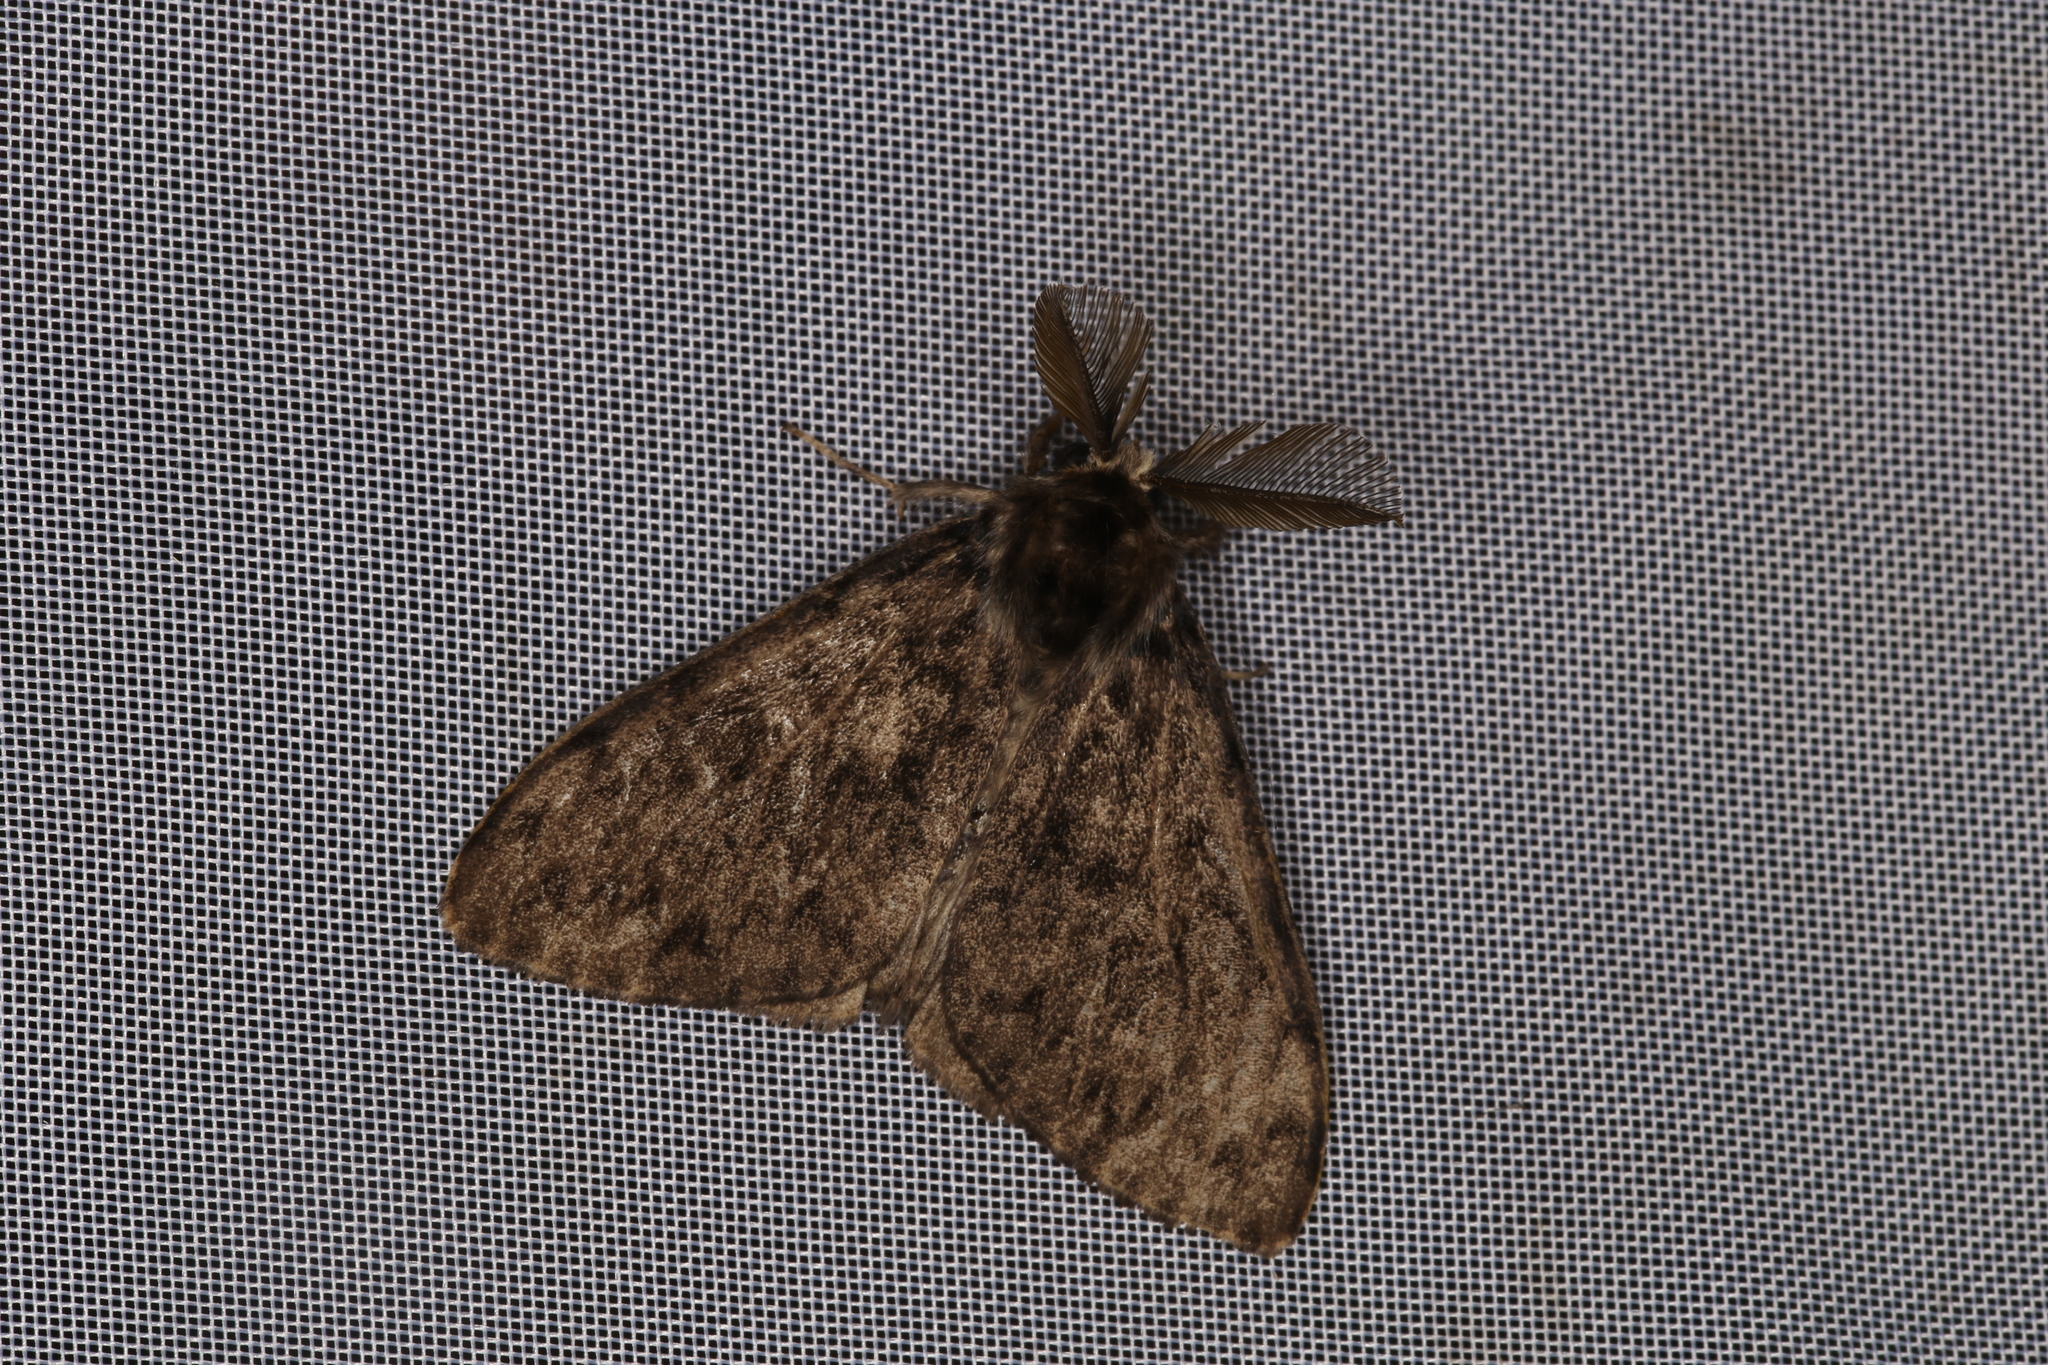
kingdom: Animalia
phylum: Arthropoda
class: Insecta
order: Lepidoptera
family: Erebidae
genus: Lymantria
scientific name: Lymantria monacha
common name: Black arches
